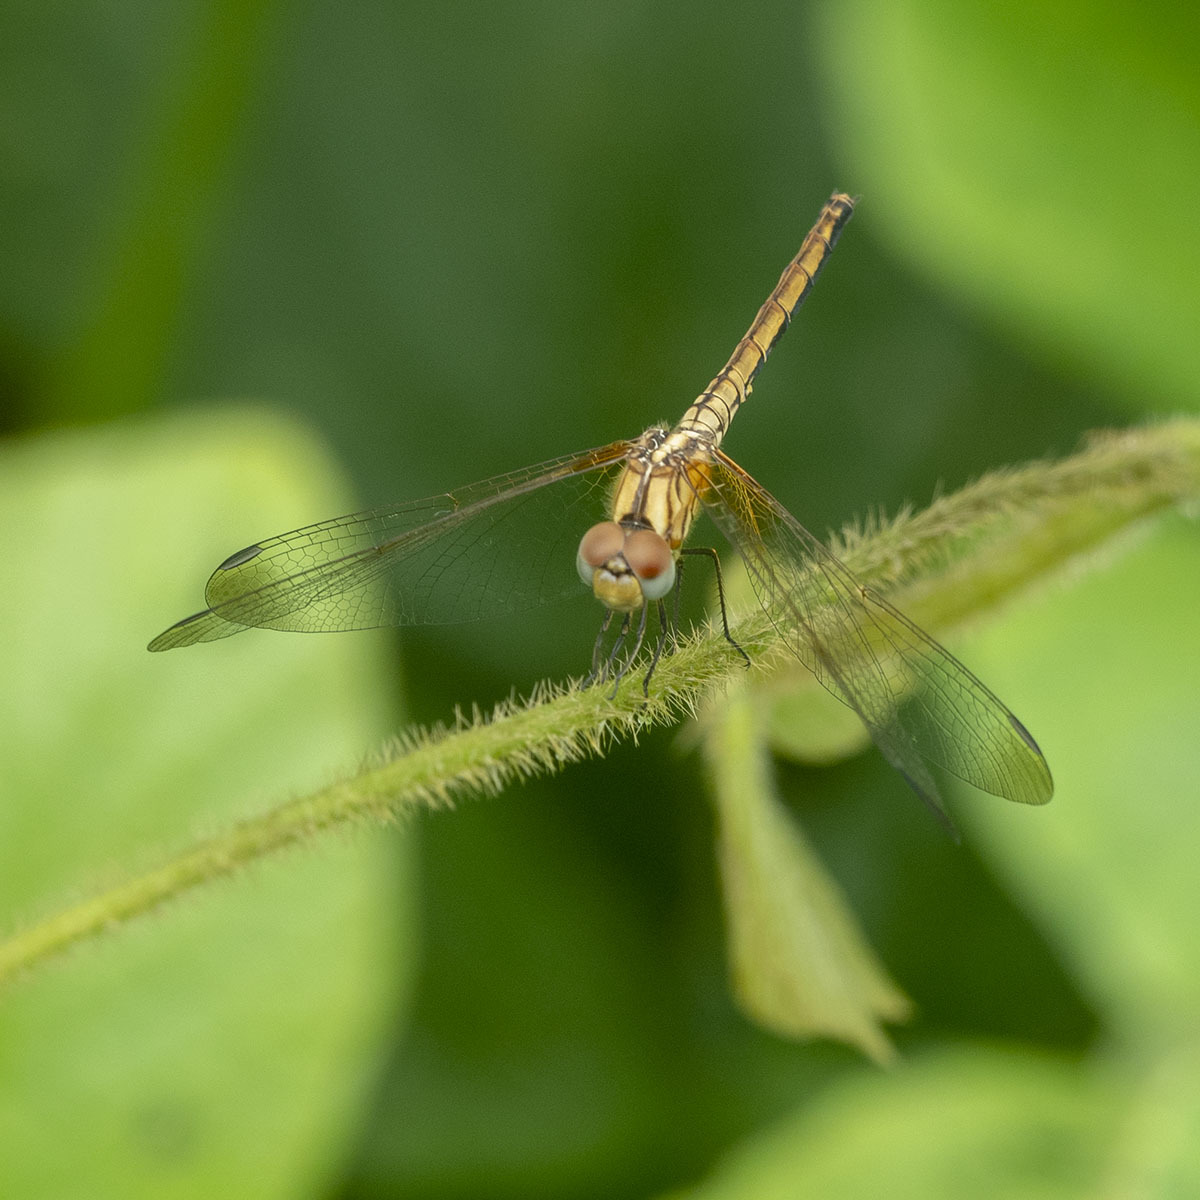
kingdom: Animalia
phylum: Arthropoda
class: Insecta
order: Odonata
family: Libellulidae
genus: Trithemis
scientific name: Trithemis aurora
